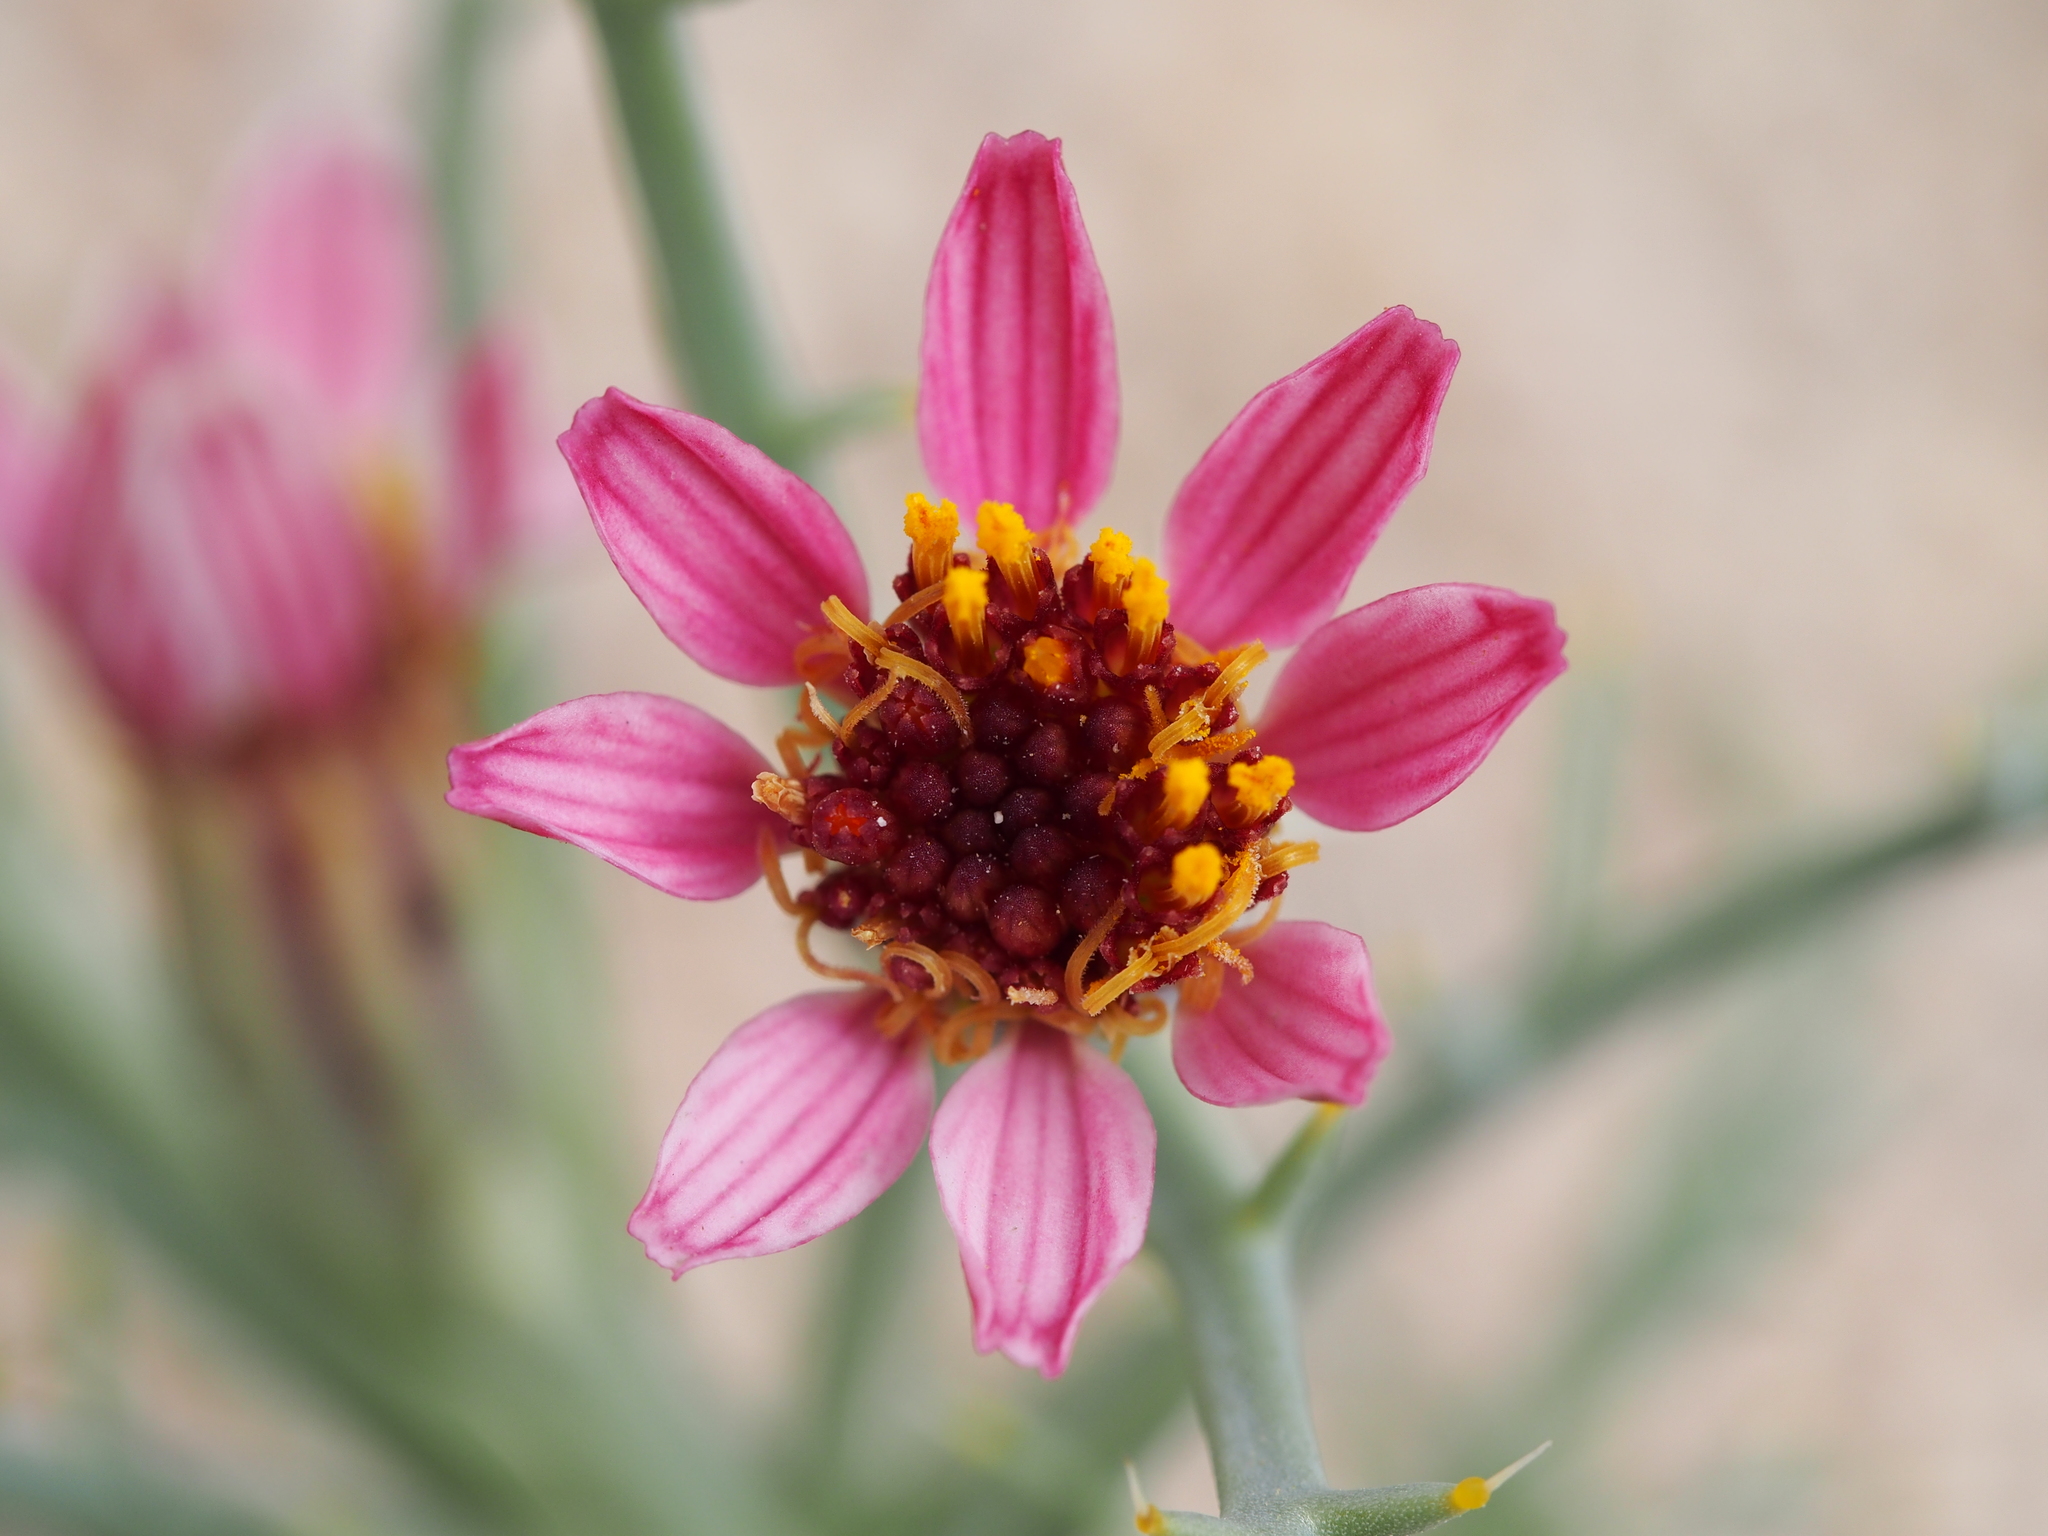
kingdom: Plantae
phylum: Tracheophyta
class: Magnoliopsida
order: Asterales
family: Asteraceae
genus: Nicolletia
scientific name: Nicolletia occidentalis
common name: Hole-in-the-sand-plant
